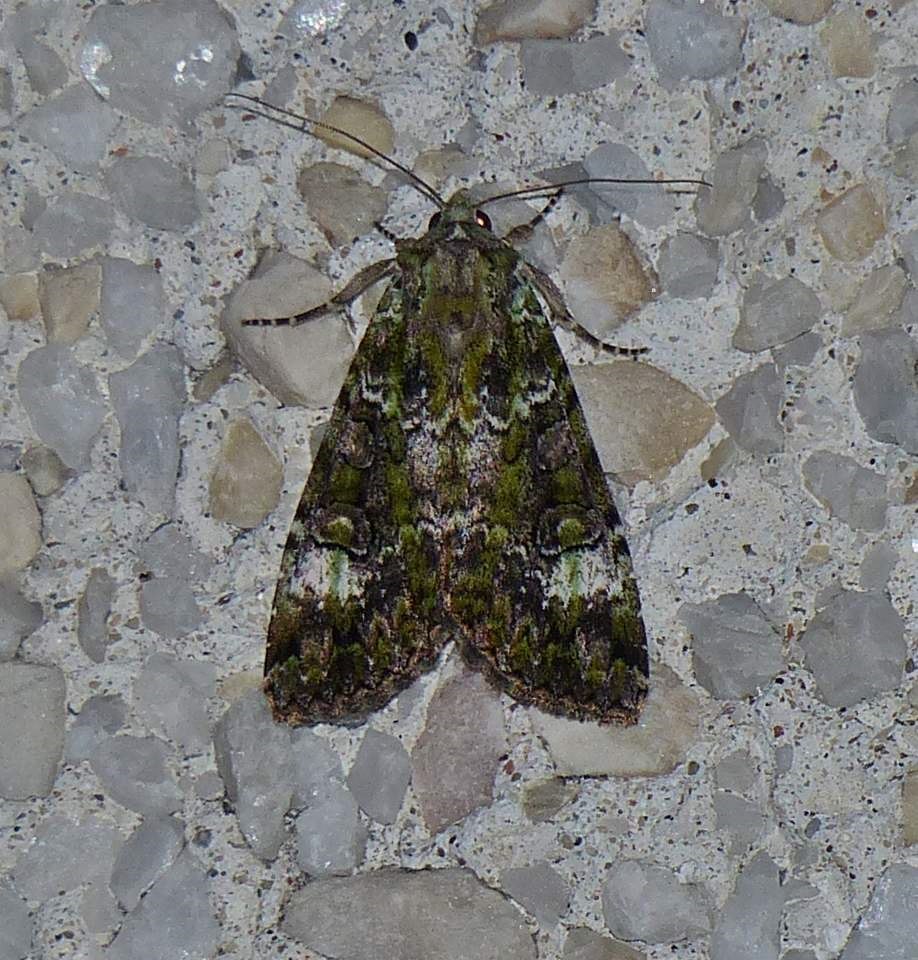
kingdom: Animalia
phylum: Arthropoda
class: Insecta
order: Lepidoptera
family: Noctuidae
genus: Anaplectoides
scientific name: Anaplectoides prasina
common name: Green arches
